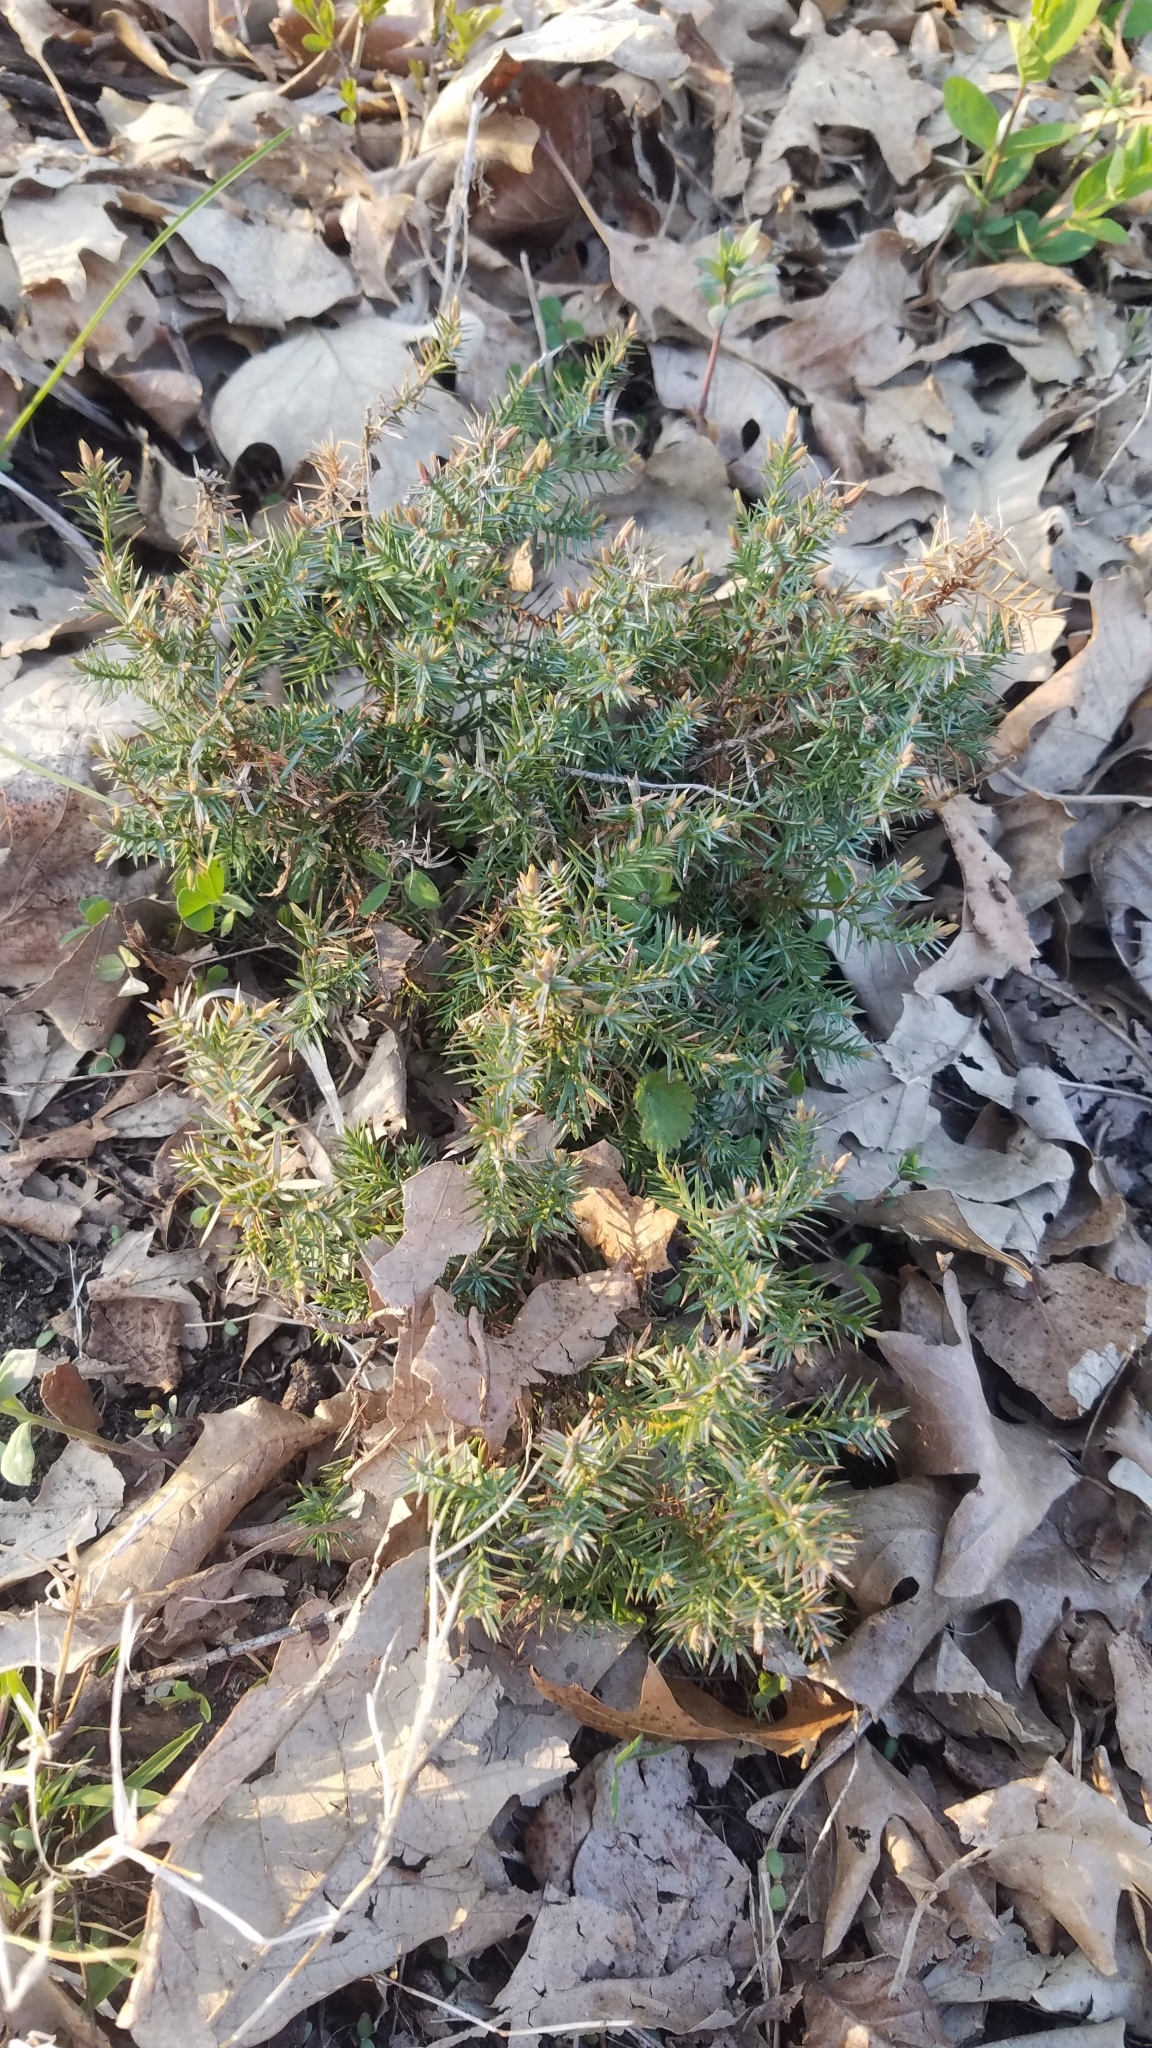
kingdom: Plantae
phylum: Tracheophyta
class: Pinopsida
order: Pinales
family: Cupressaceae
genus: Juniperus
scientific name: Juniperus virginiana
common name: Red juniper
